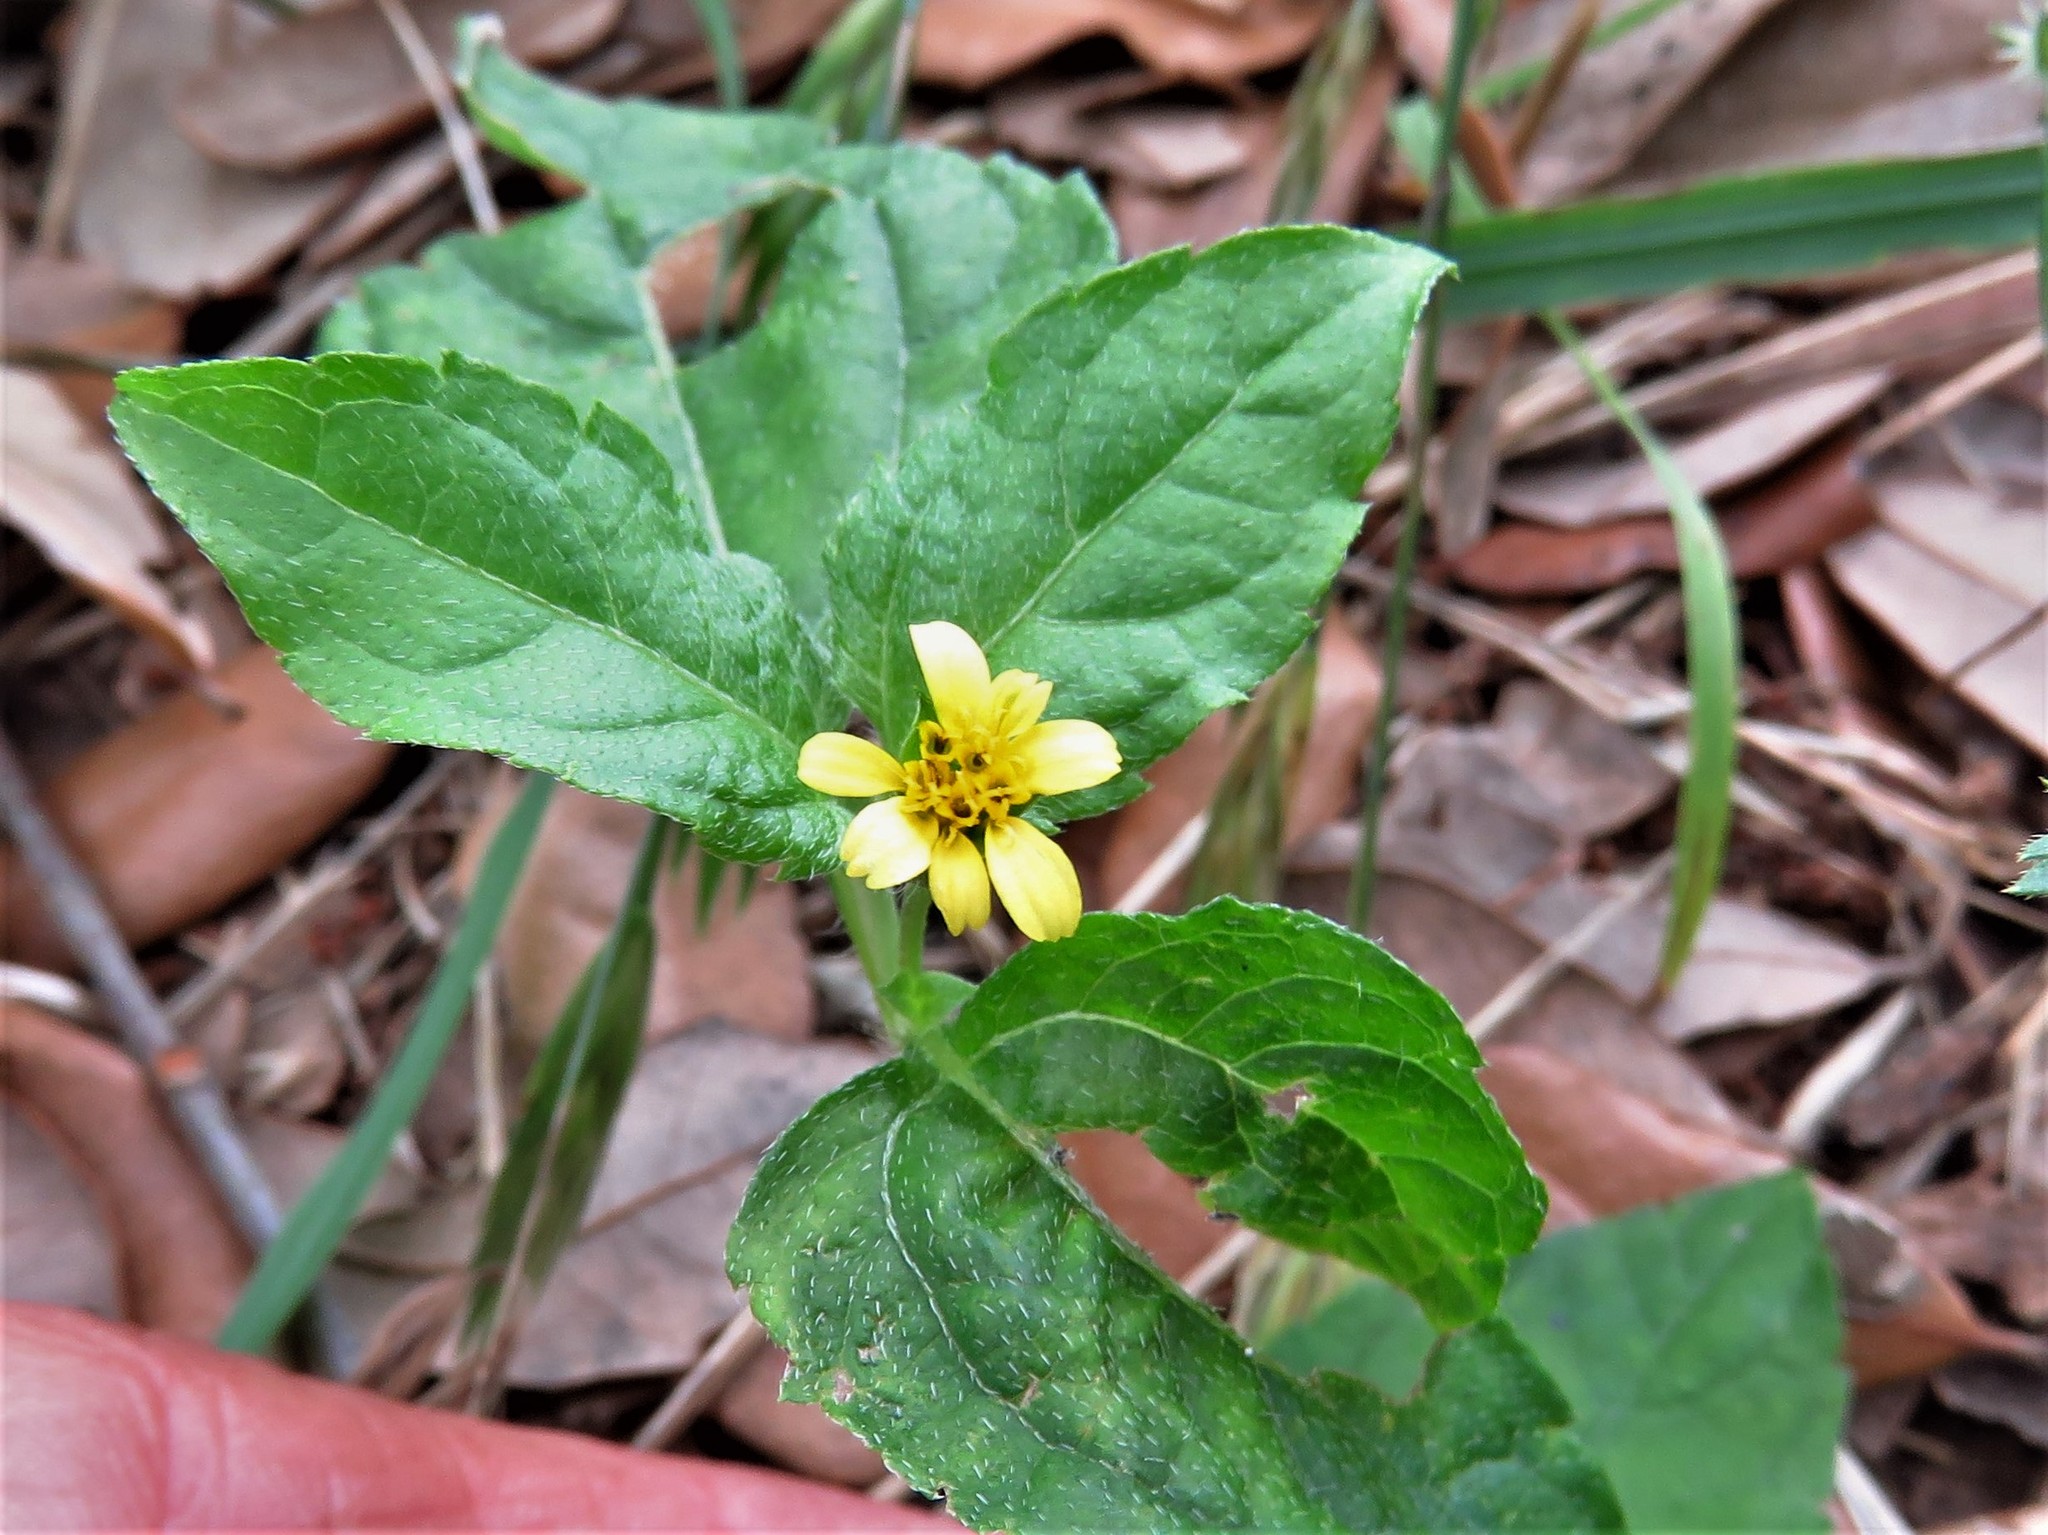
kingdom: Plantae
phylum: Tracheophyta
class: Magnoliopsida
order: Asterales
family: Asteraceae
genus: Calyptocarpus
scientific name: Calyptocarpus vialis
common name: Straggler daisy
